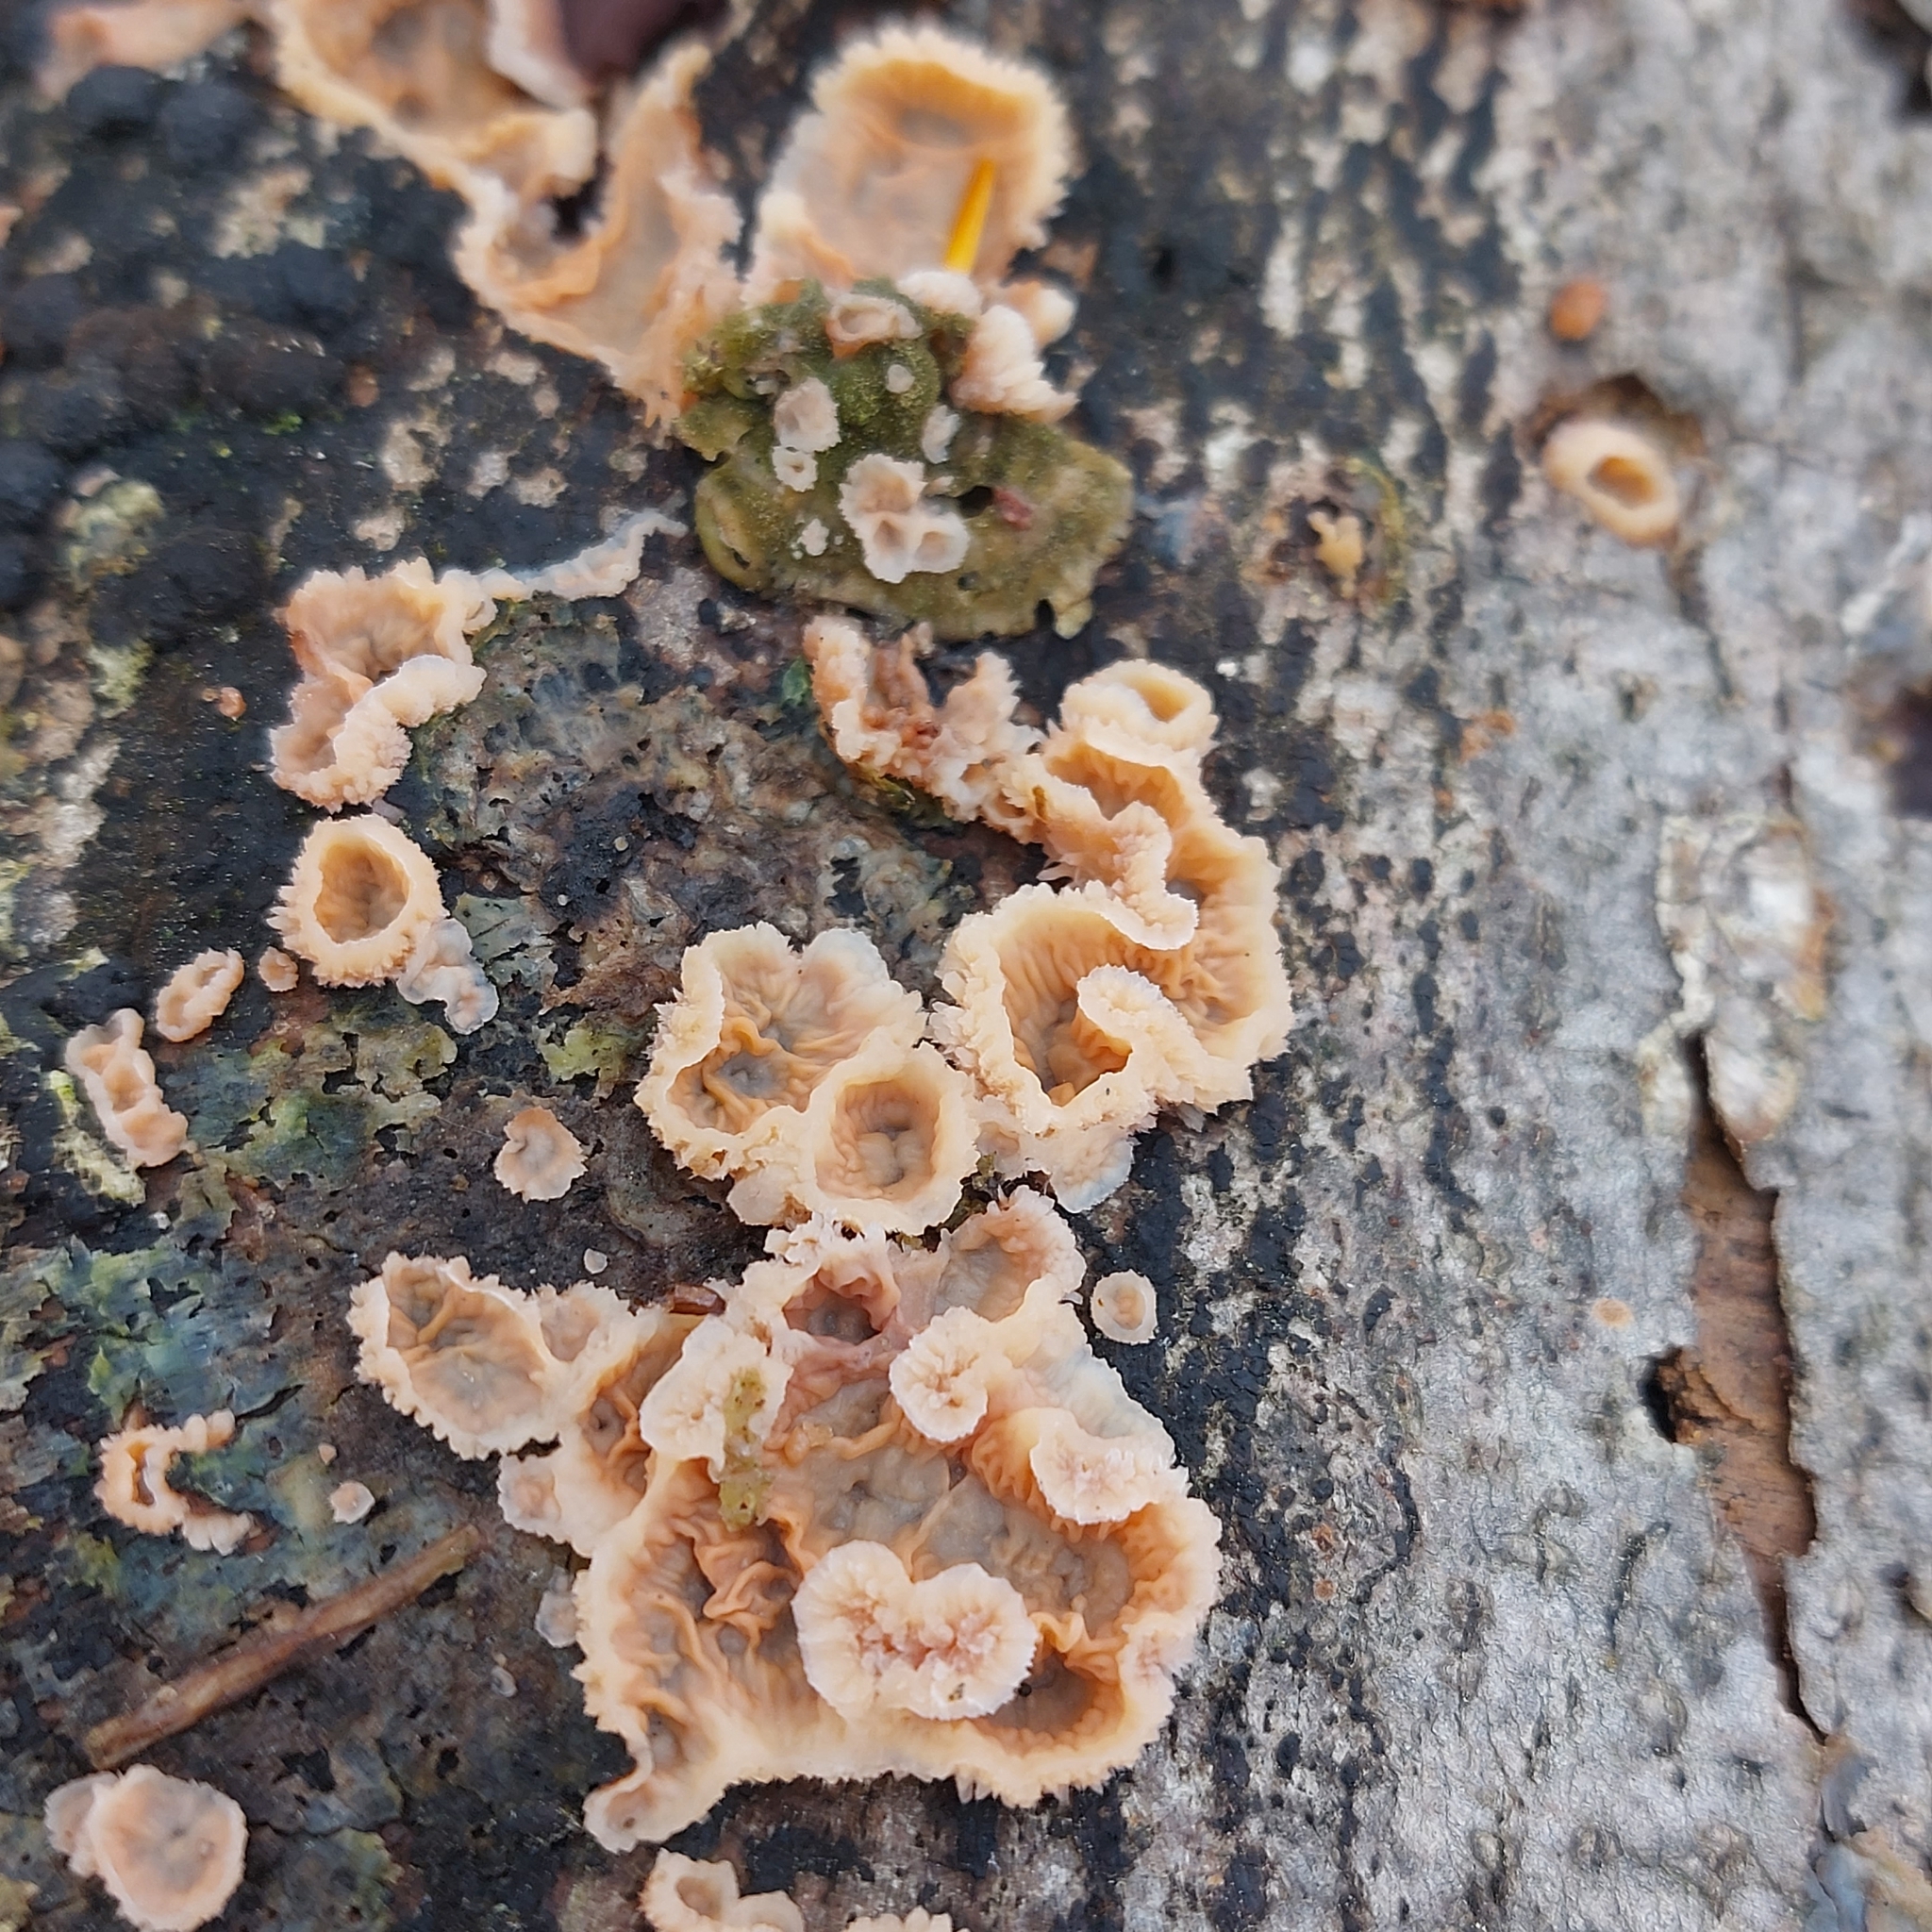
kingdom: Fungi
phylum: Basidiomycota
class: Agaricomycetes
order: Polyporales
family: Meruliaceae
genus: Phlebia
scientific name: Phlebia tremellosa
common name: Jelly rot
